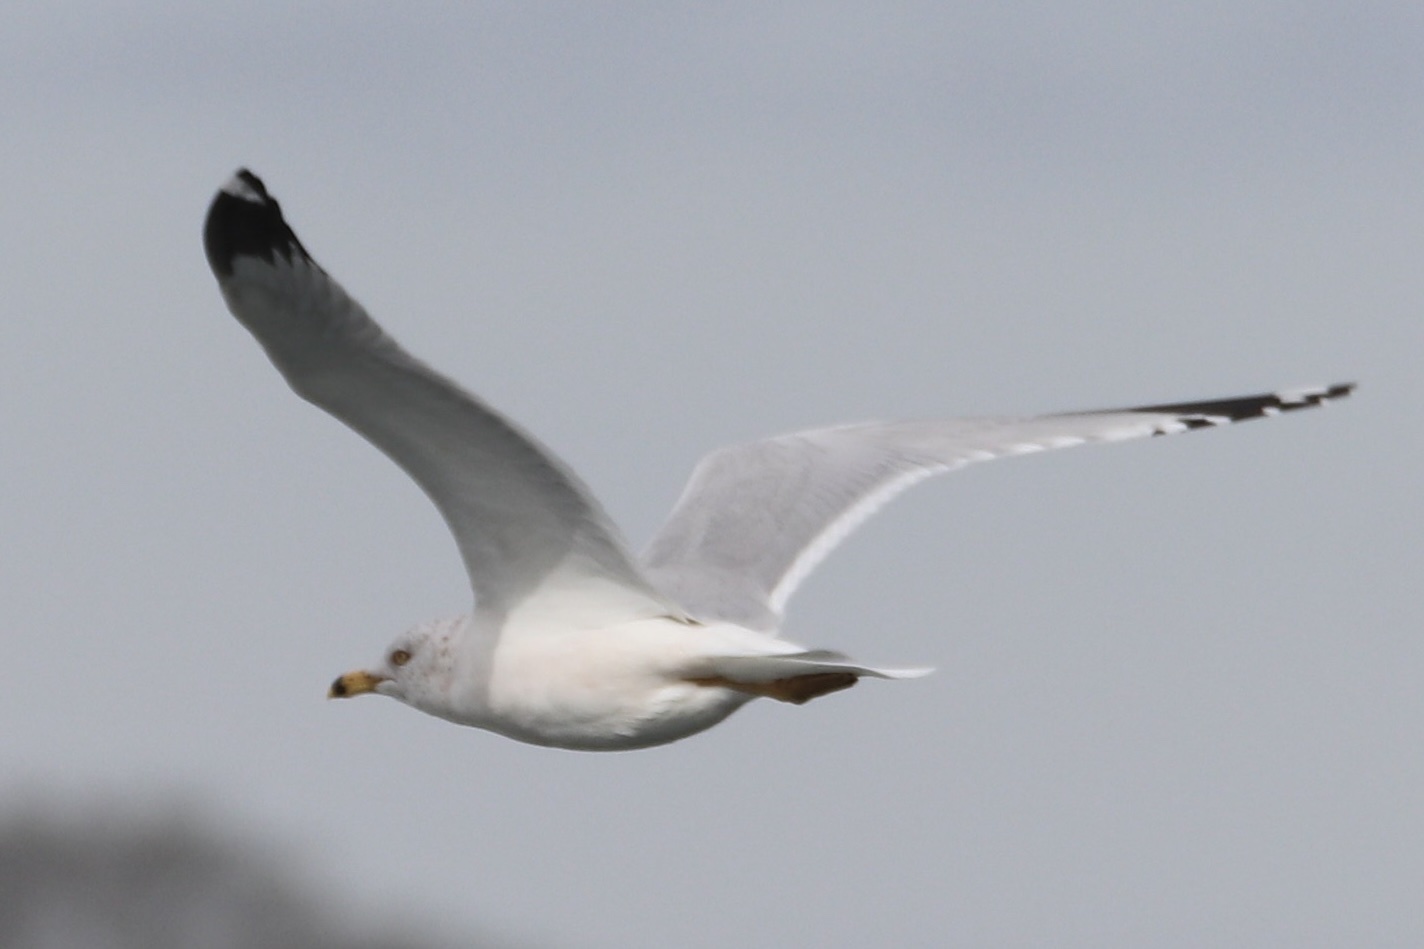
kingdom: Animalia
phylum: Chordata
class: Aves
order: Charadriiformes
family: Laridae
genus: Larus
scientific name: Larus delawarensis
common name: Ring-billed gull
